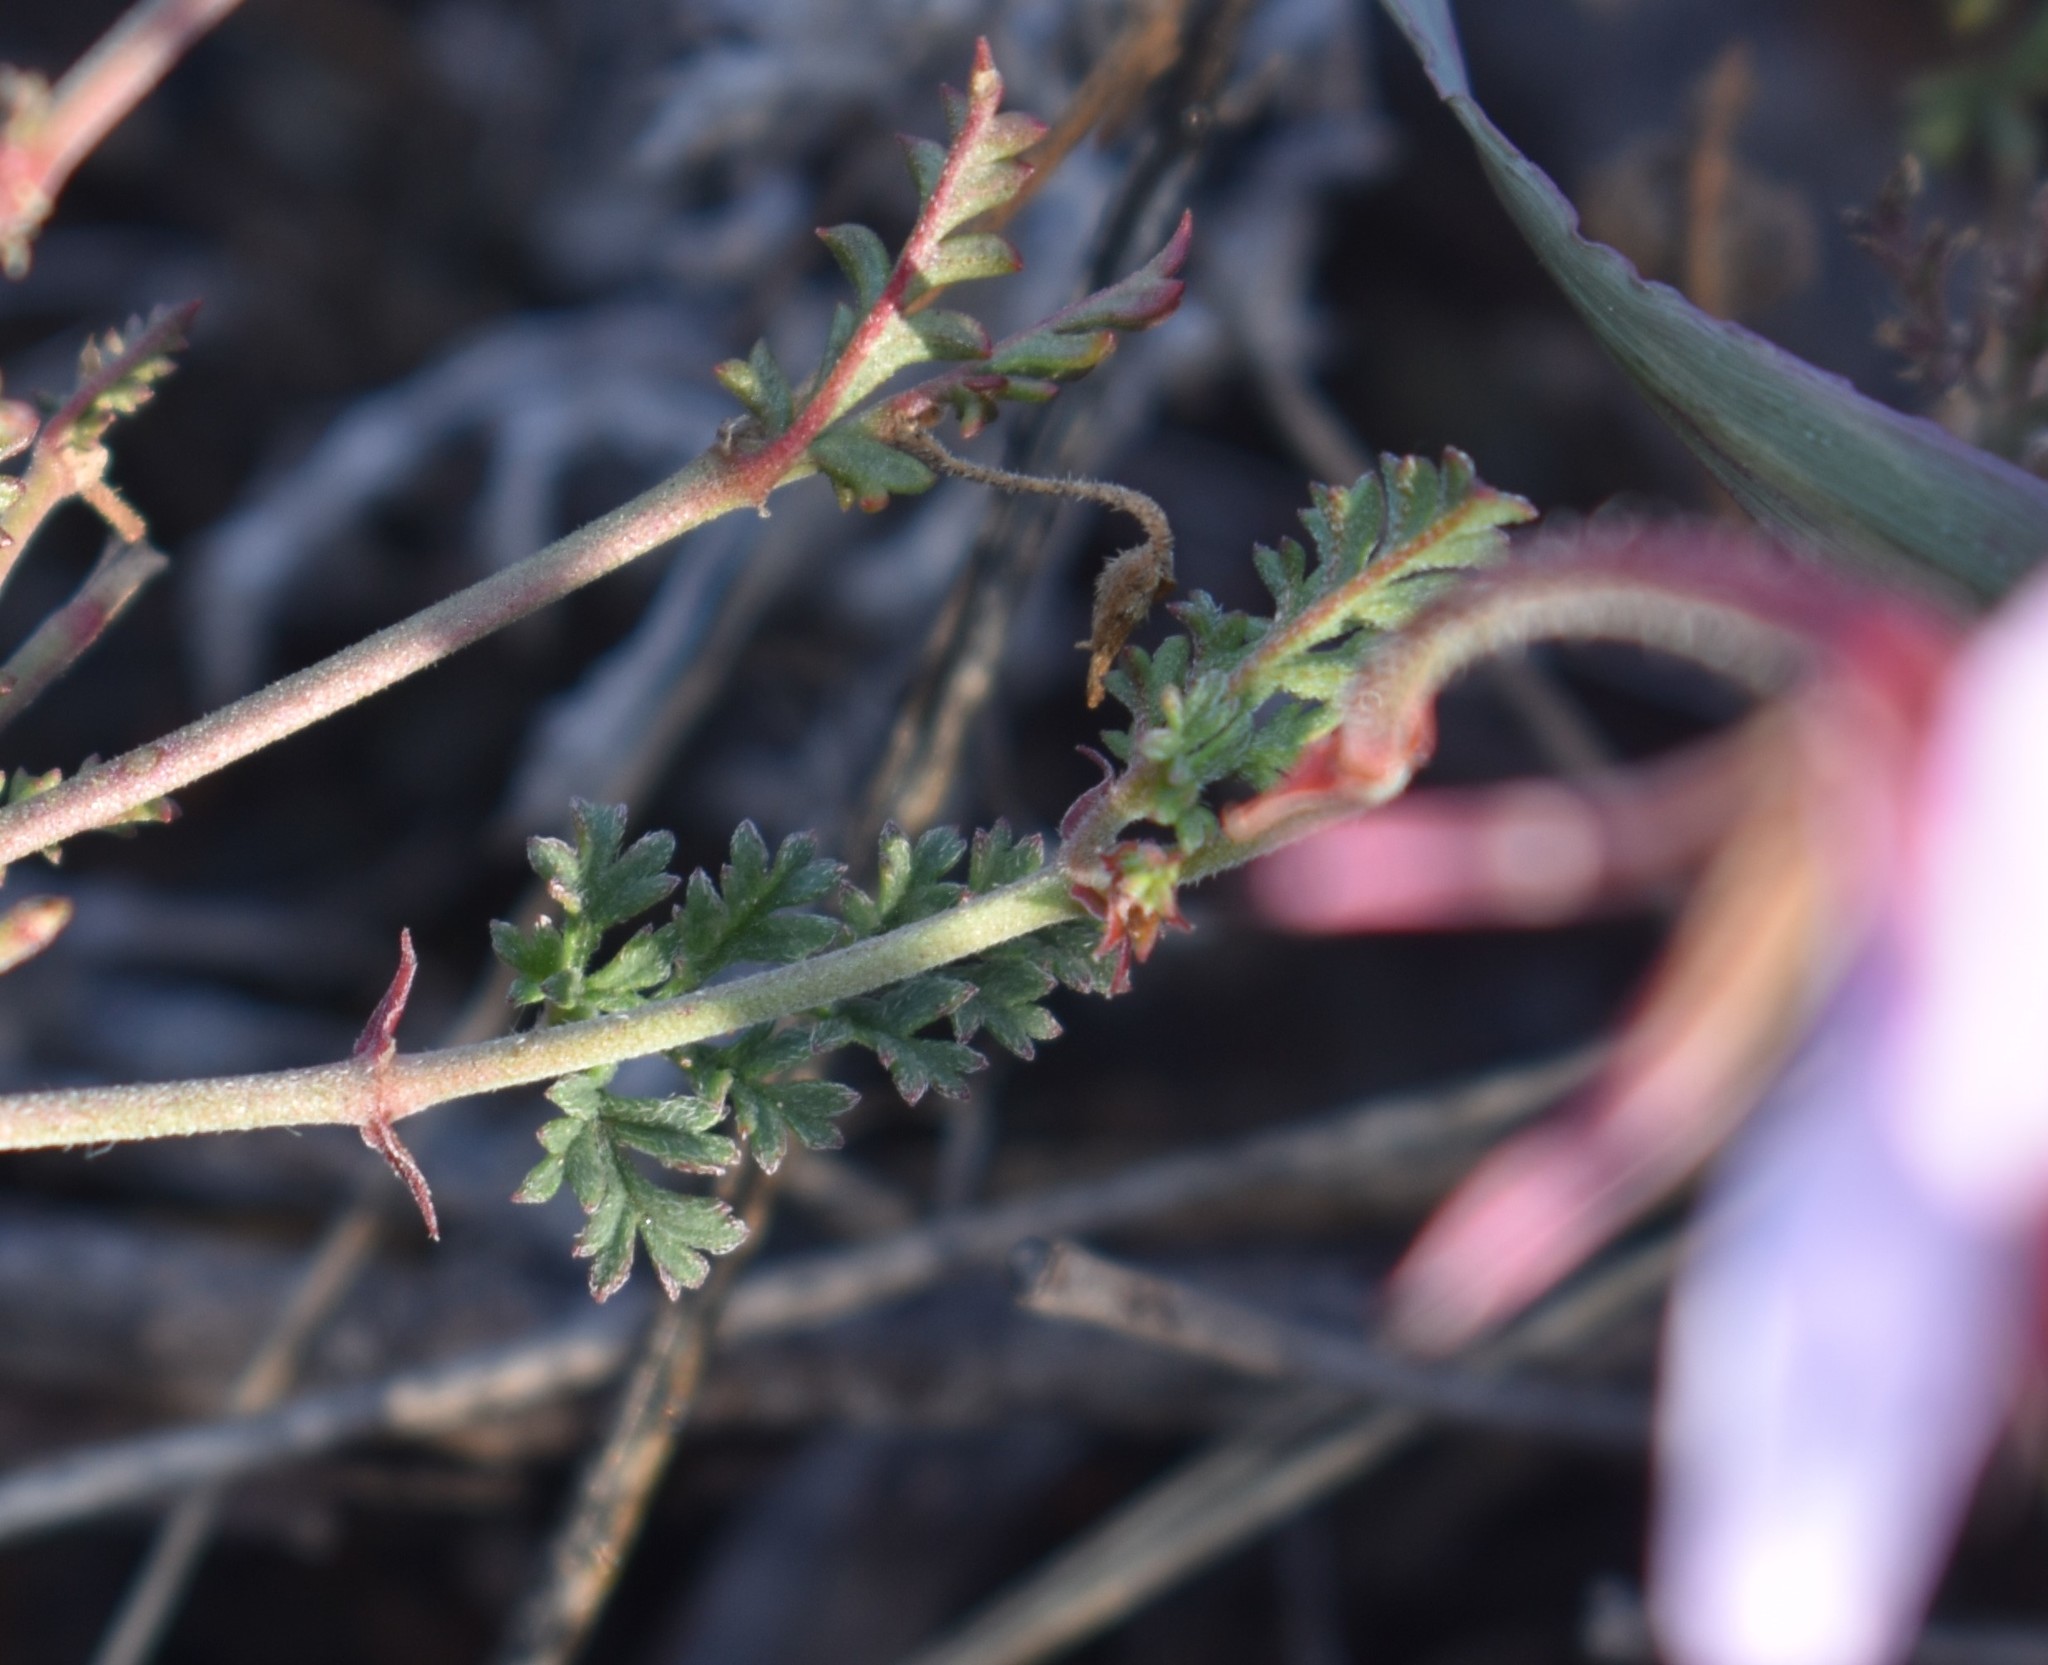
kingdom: Plantae
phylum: Tracheophyta
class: Magnoliopsida
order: Geraniales
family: Geraniaceae
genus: Pelargonium
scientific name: Pelargonium caucalifolium
